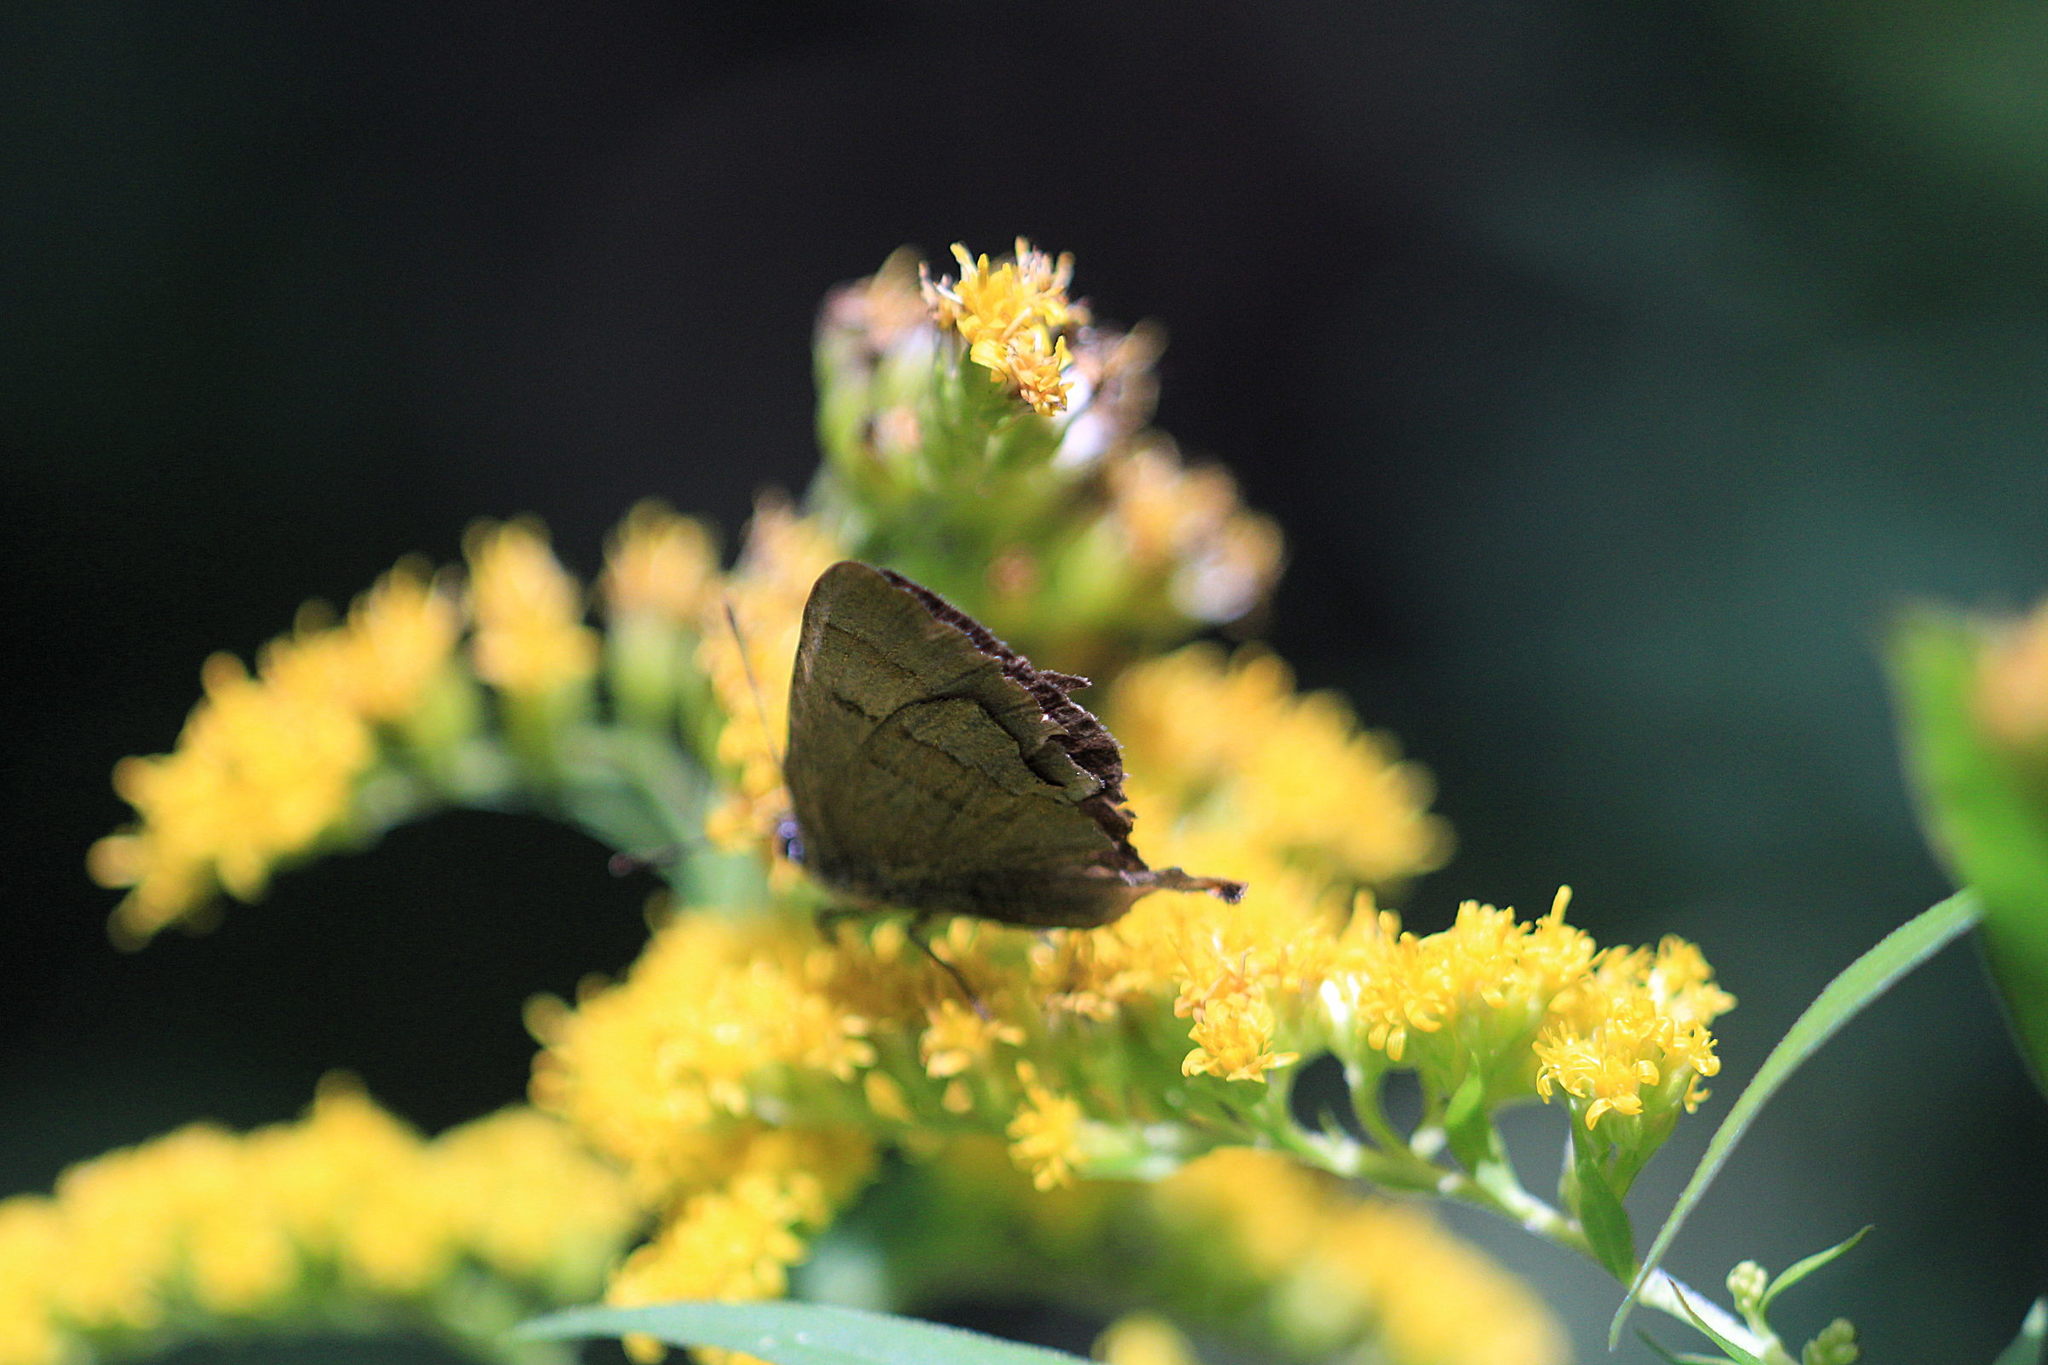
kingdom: Animalia
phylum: Arthropoda
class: Insecta
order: Lepidoptera
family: Lycaenidae
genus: Thecla
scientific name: Thecla betulae
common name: Brown hairstreak
